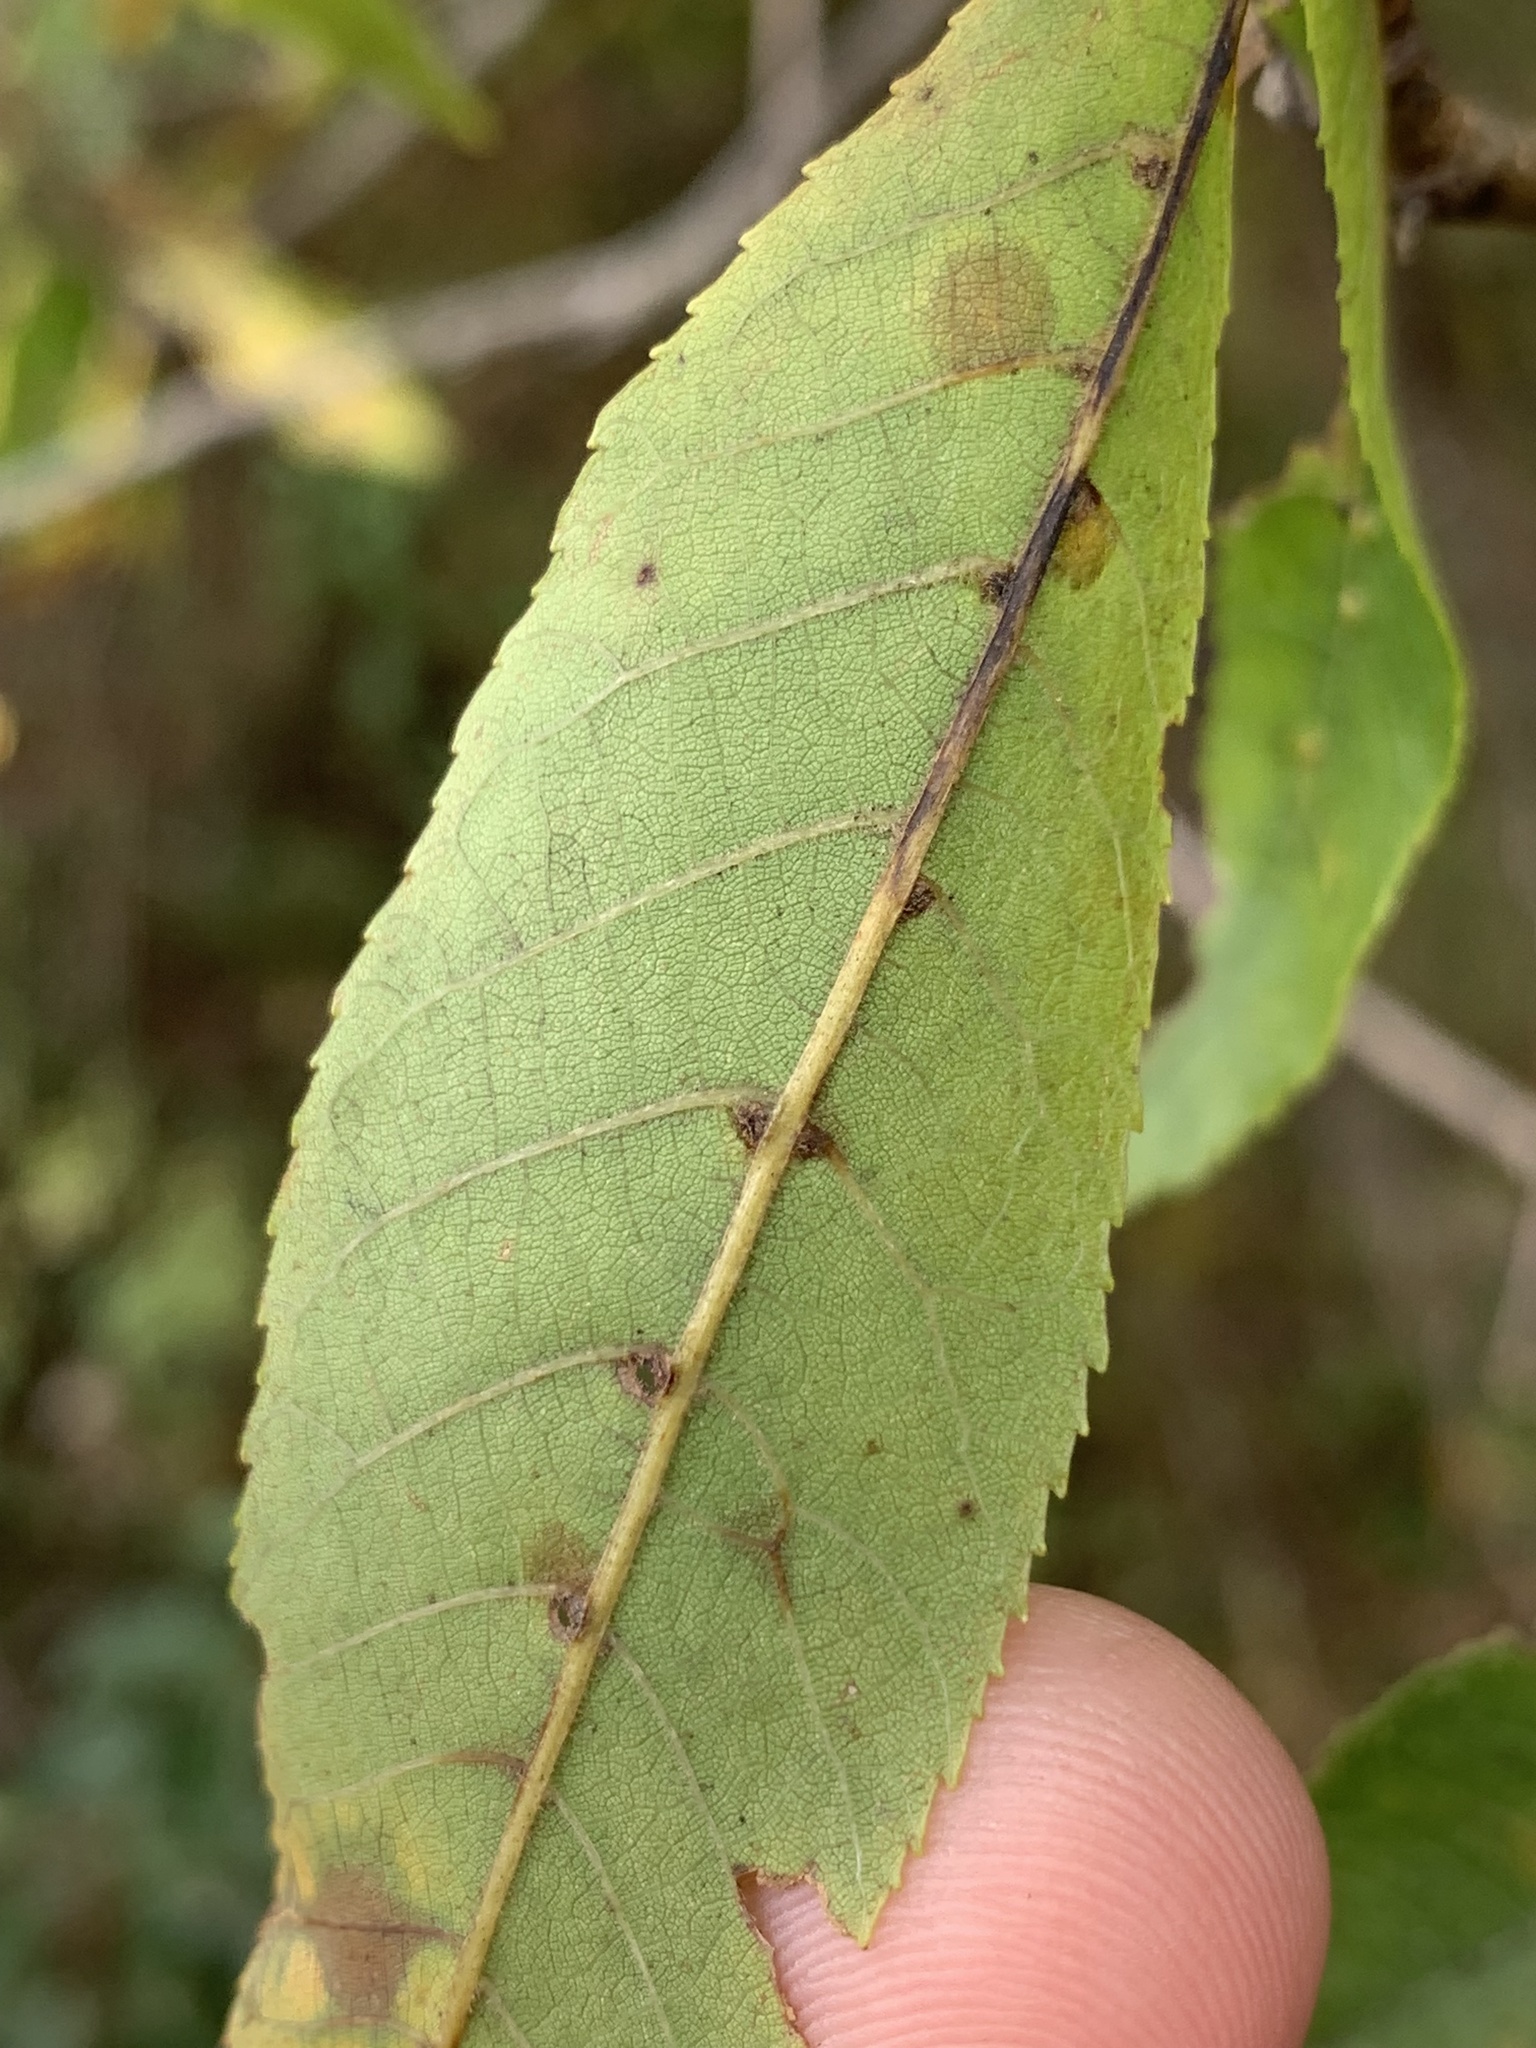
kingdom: Animalia
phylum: Arthropoda
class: Arachnida
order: Trombidiformes
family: Eriophyidae
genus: Aceria
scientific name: Aceria
